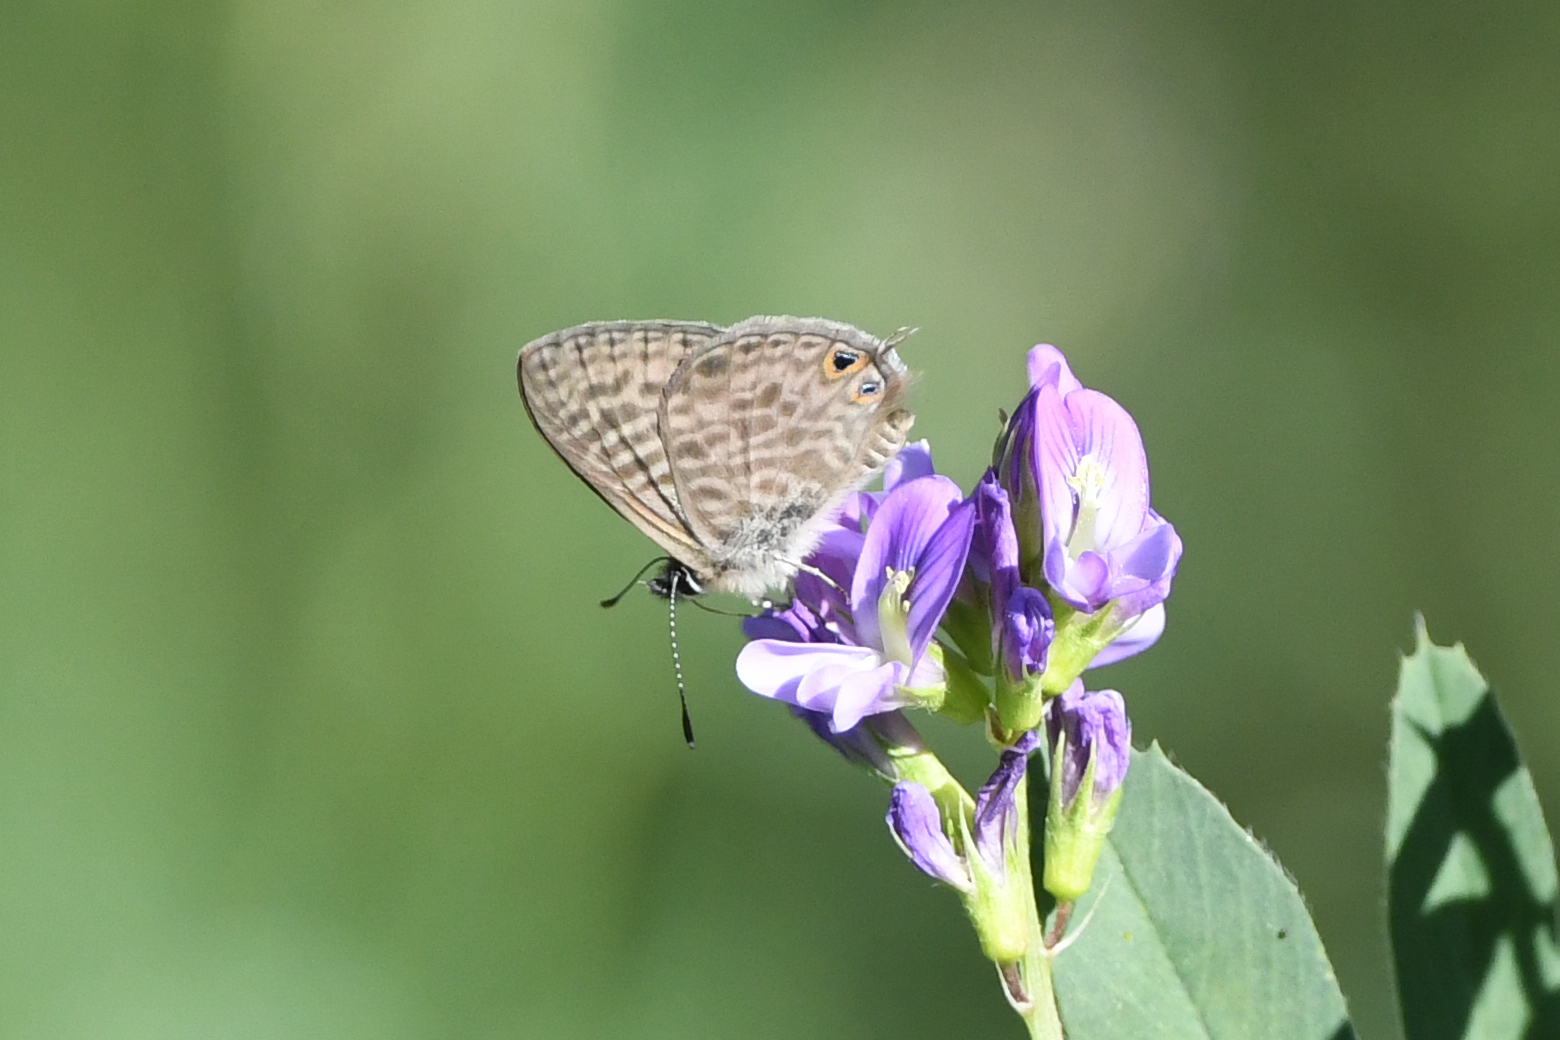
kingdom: Animalia
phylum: Arthropoda
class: Insecta
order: Lepidoptera
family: Lycaenidae
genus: Leptotes
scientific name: Leptotes pirithous
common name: Lang's short-tailed blue
